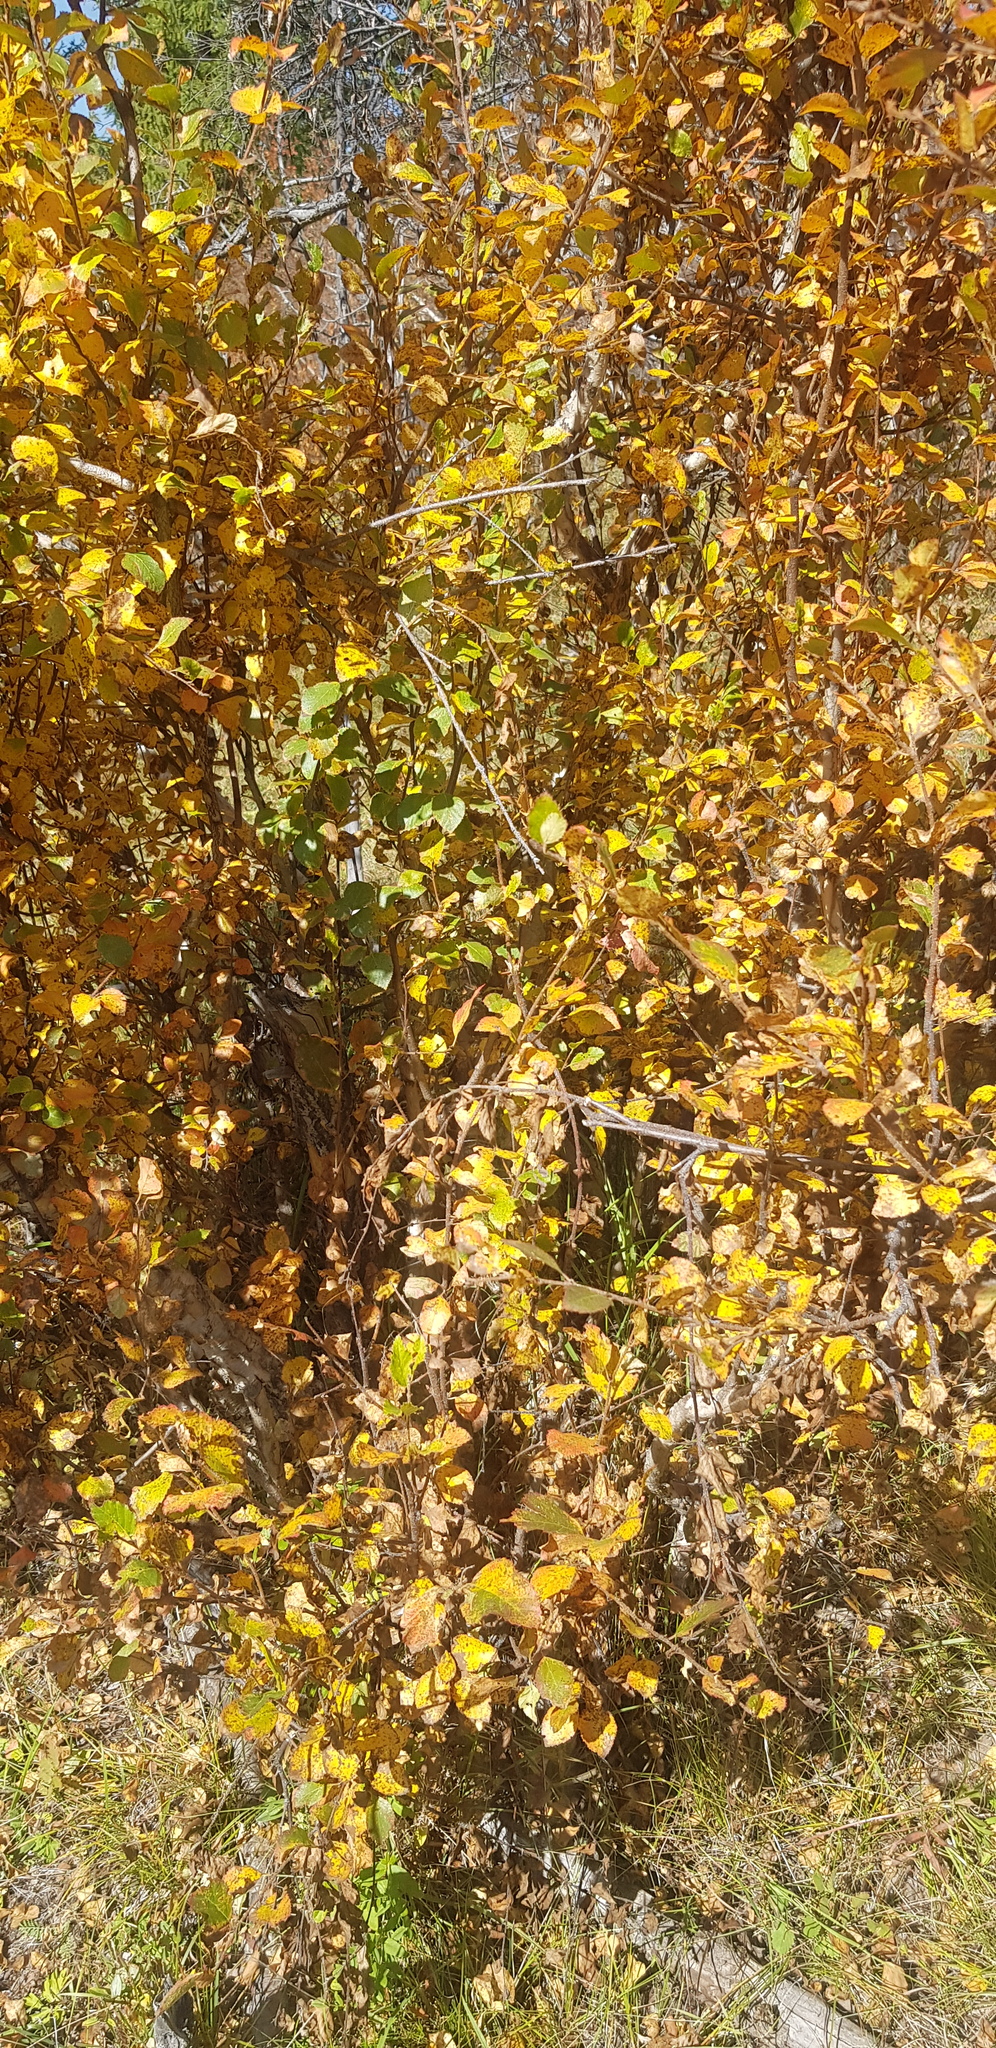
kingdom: Plantae
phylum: Tracheophyta
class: Magnoliopsida
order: Fagales
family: Betulaceae
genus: Betula
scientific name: Betula pendula
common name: Silver birch
